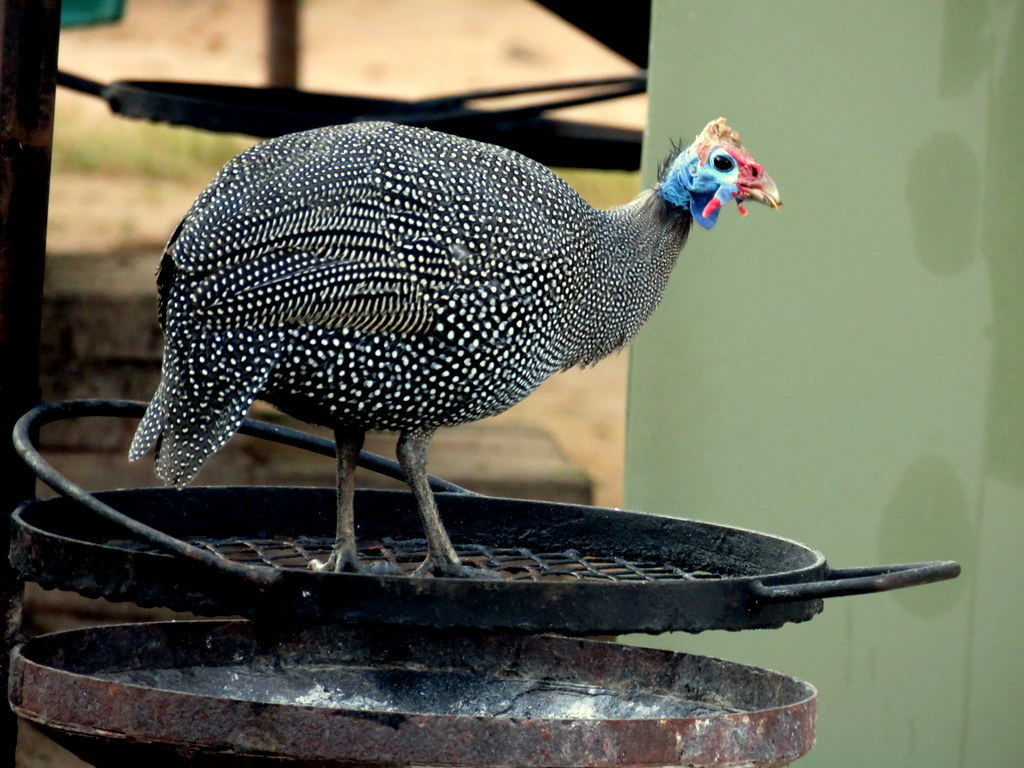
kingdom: Animalia
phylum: Chordata
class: Aves
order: Galliformes
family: Numididae
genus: Numida
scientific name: Numida meleagris
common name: Helmeted guineafowl
